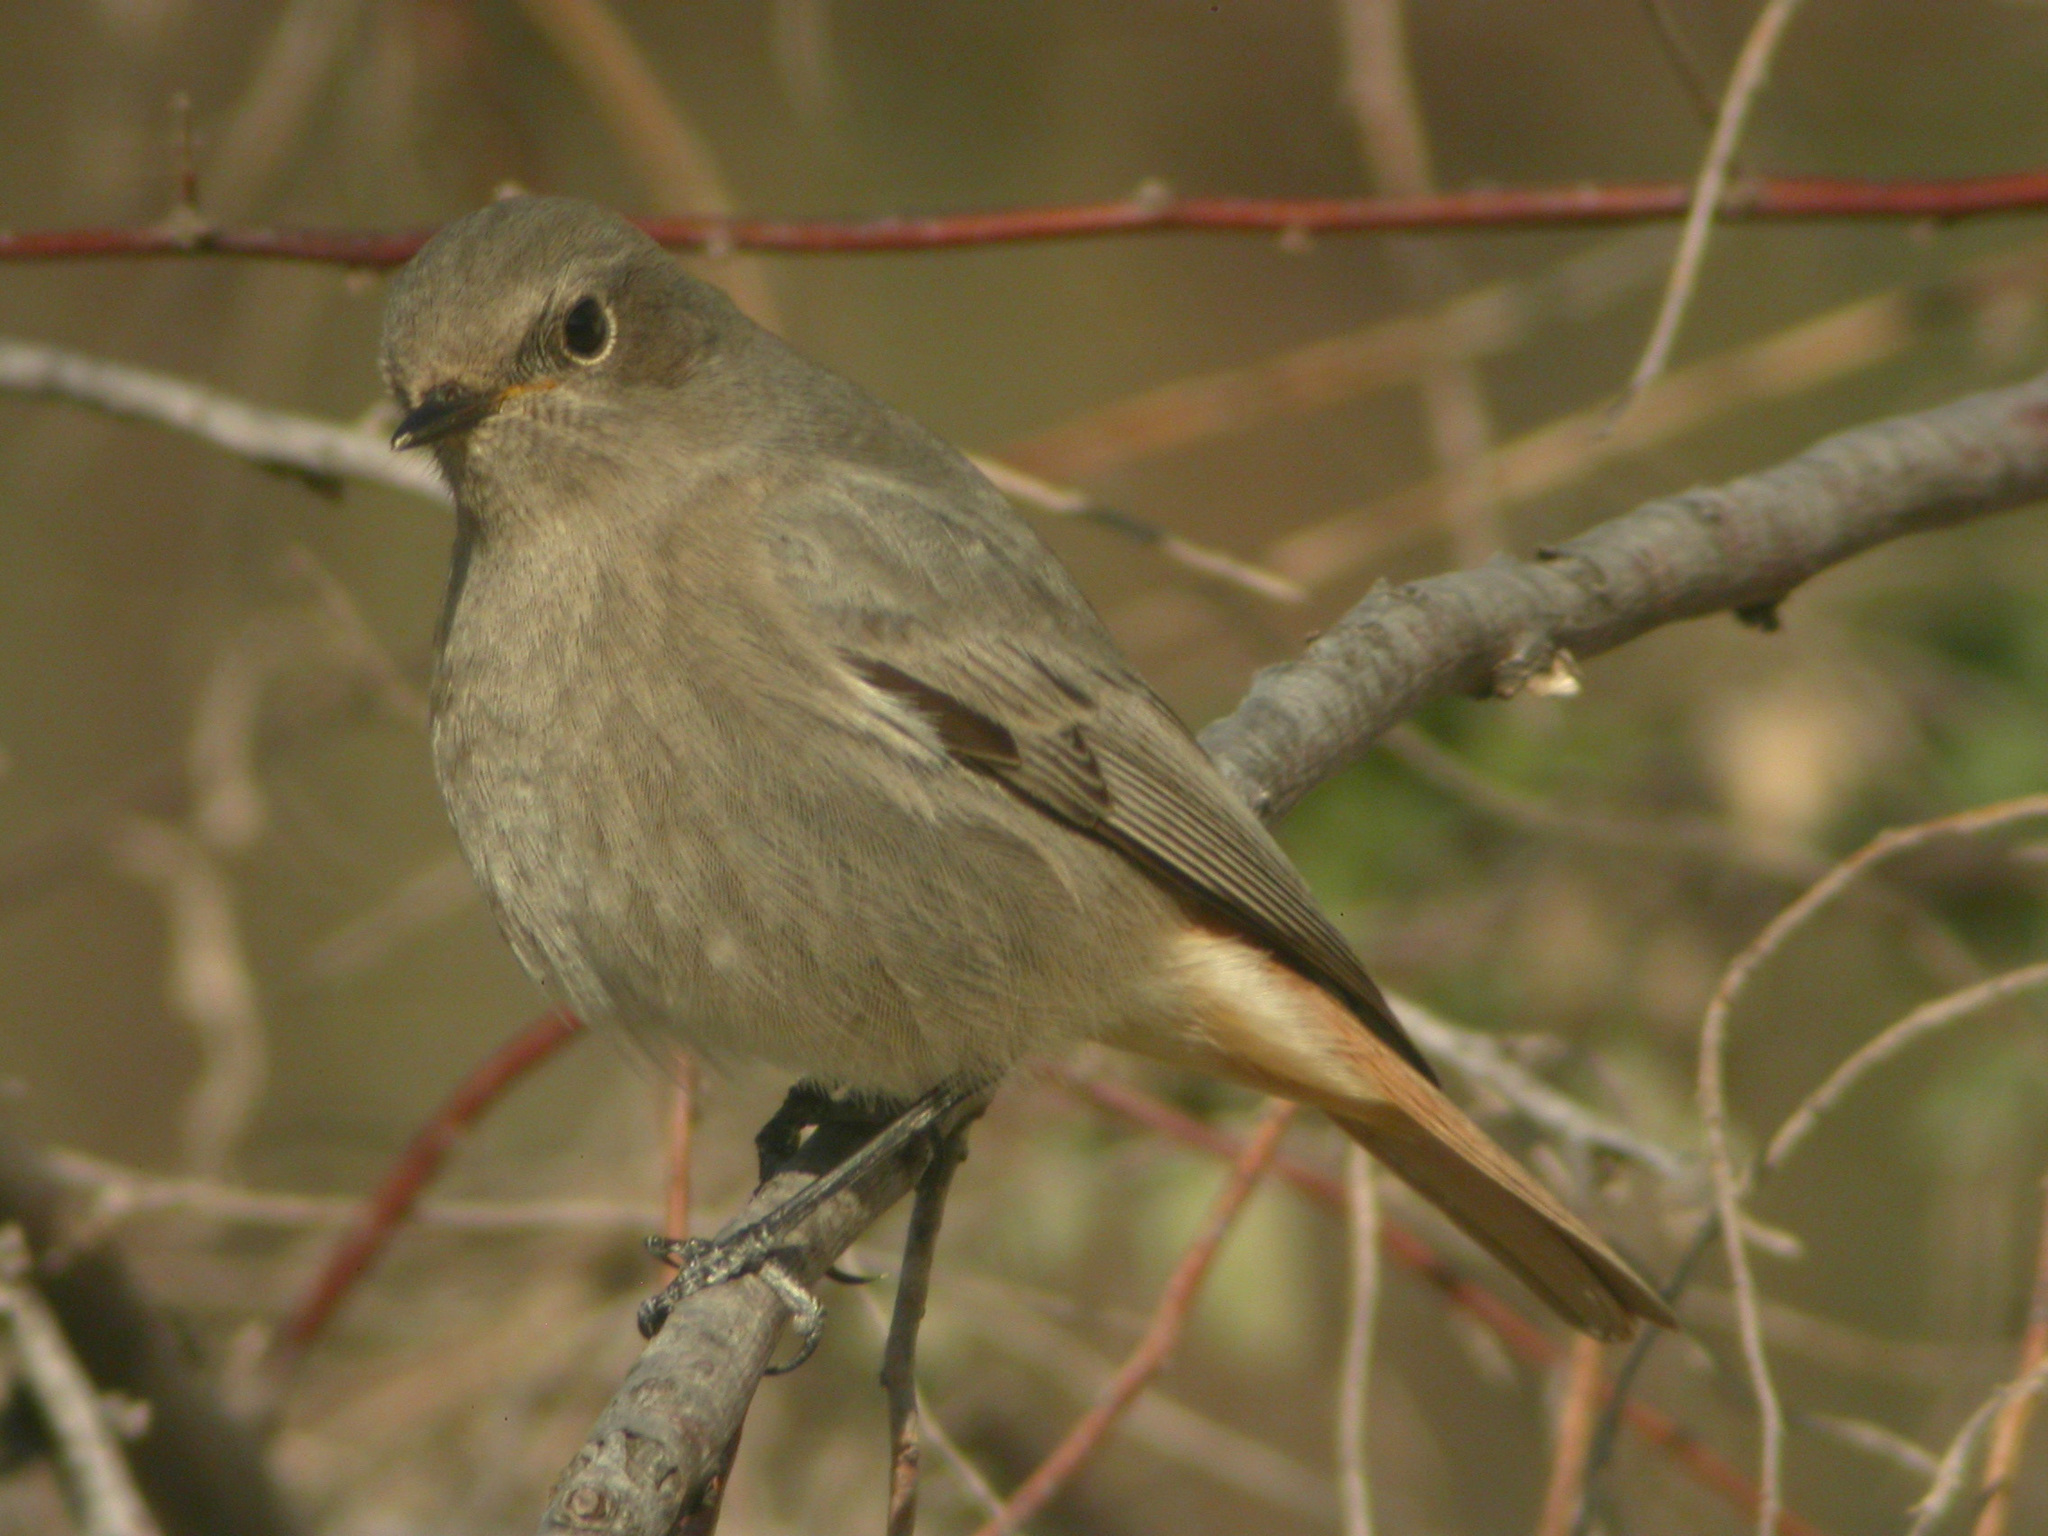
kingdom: Animalia
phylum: Chordata
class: Aves
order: Passeriformes
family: Muscicapidae
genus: Phoenicurus
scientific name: Phoenicurus ochruros
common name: Black redstart
